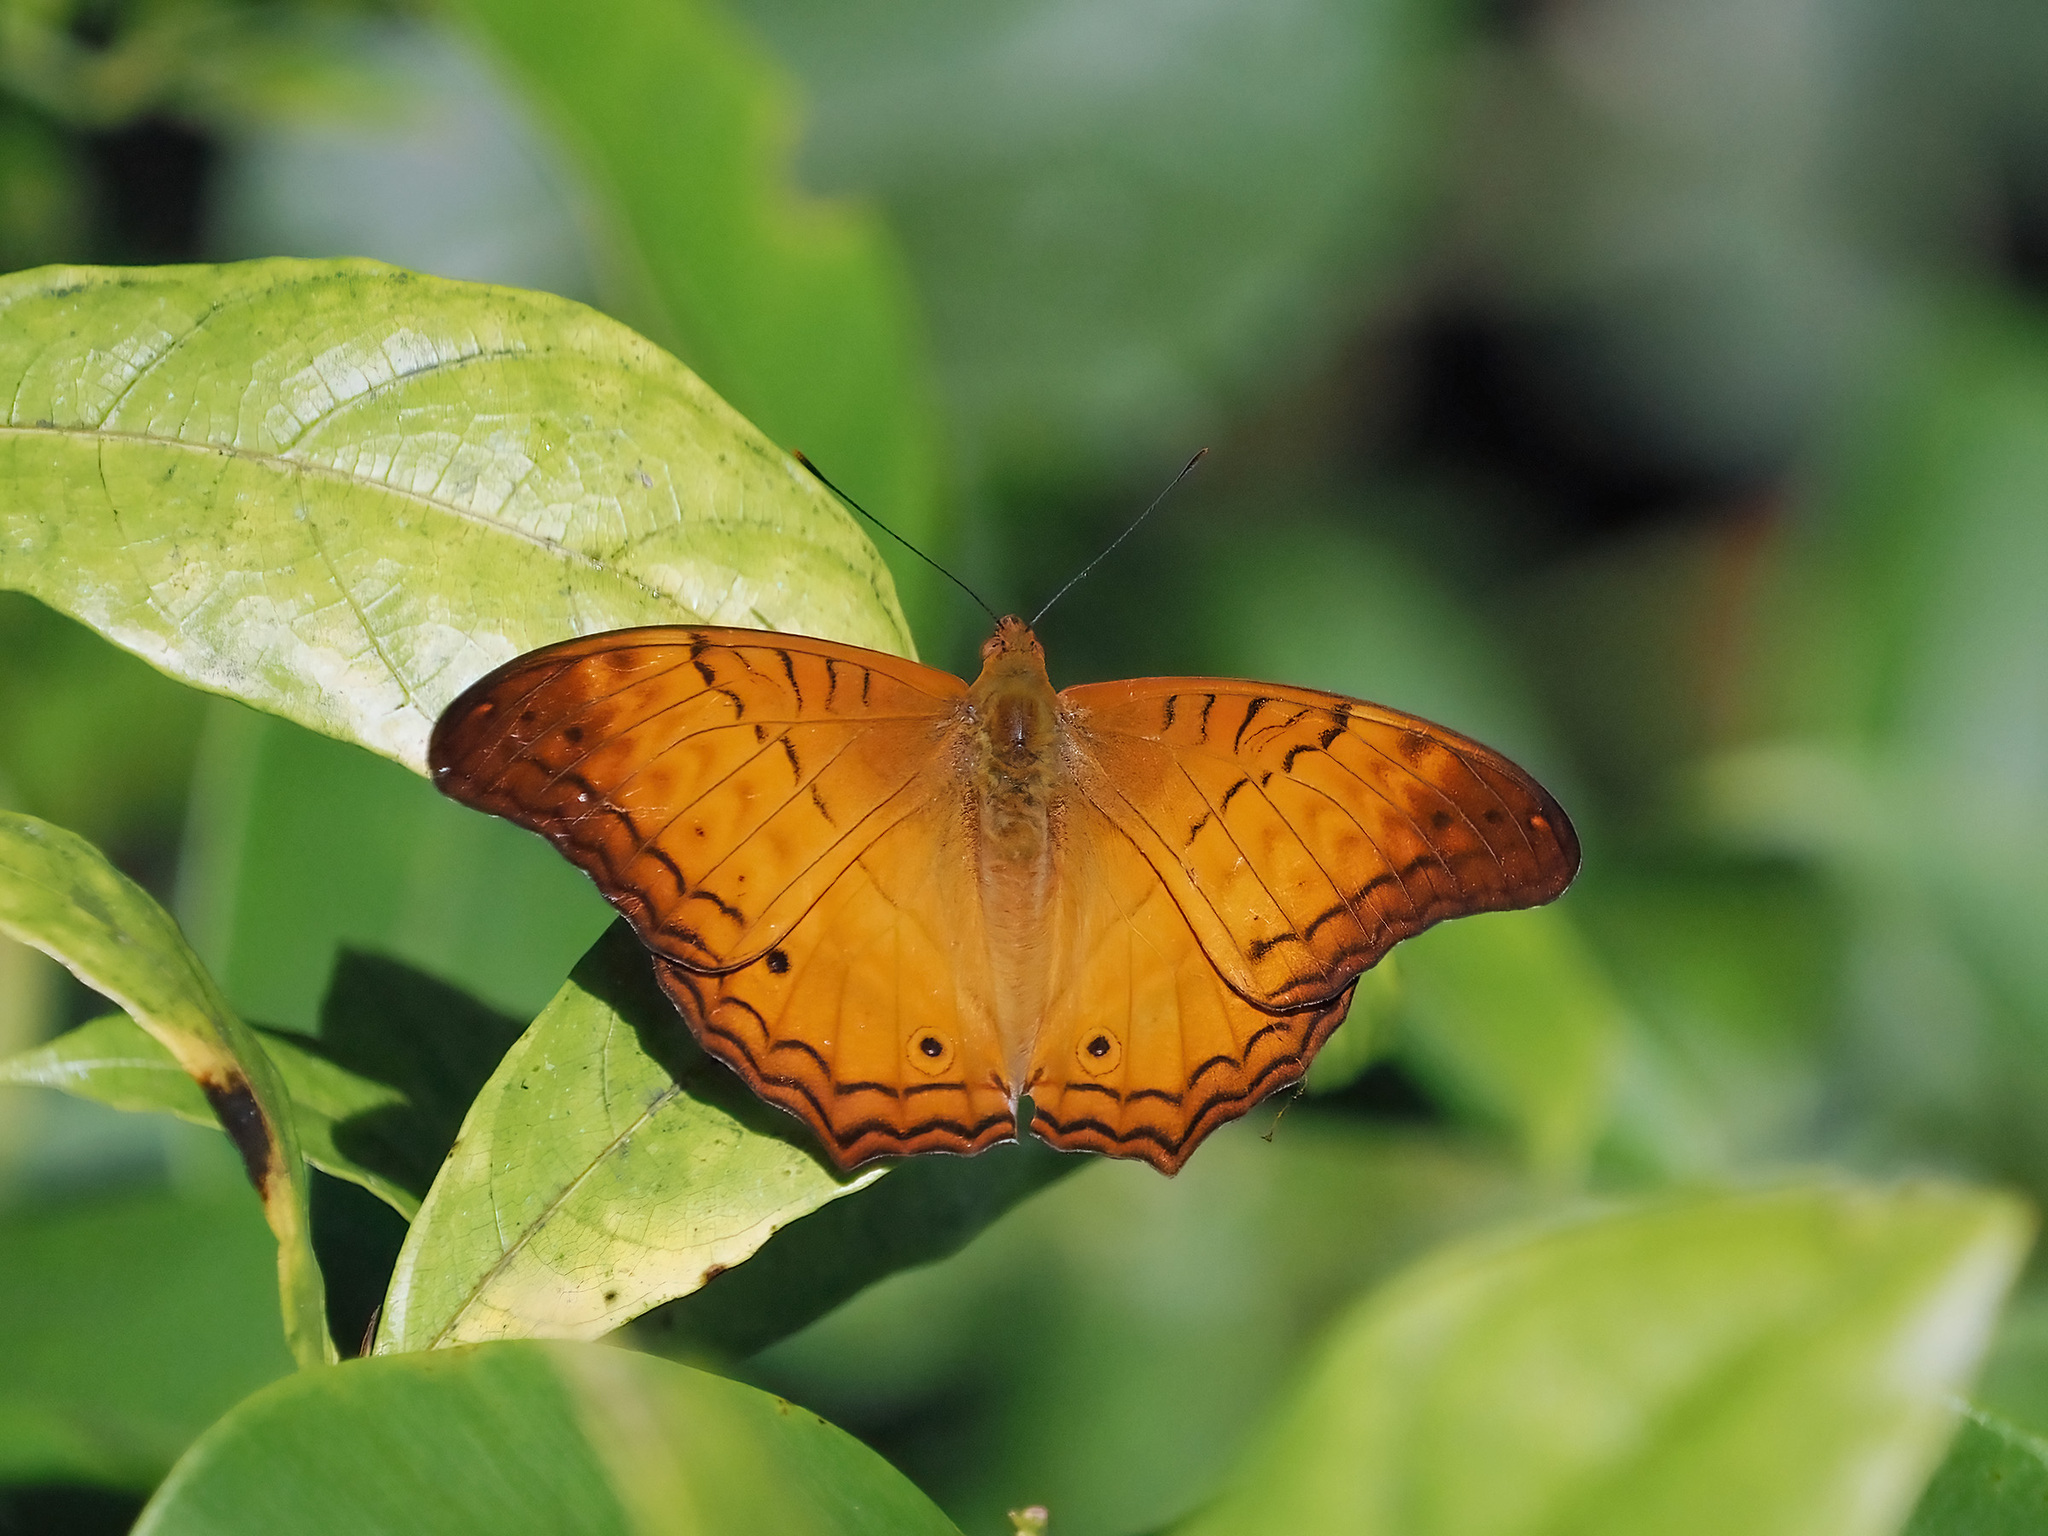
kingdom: Animalia
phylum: Arthropoda
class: Insecta
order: Lepidoptera
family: Nymphalidae
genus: Vindula
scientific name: Vindula deione
